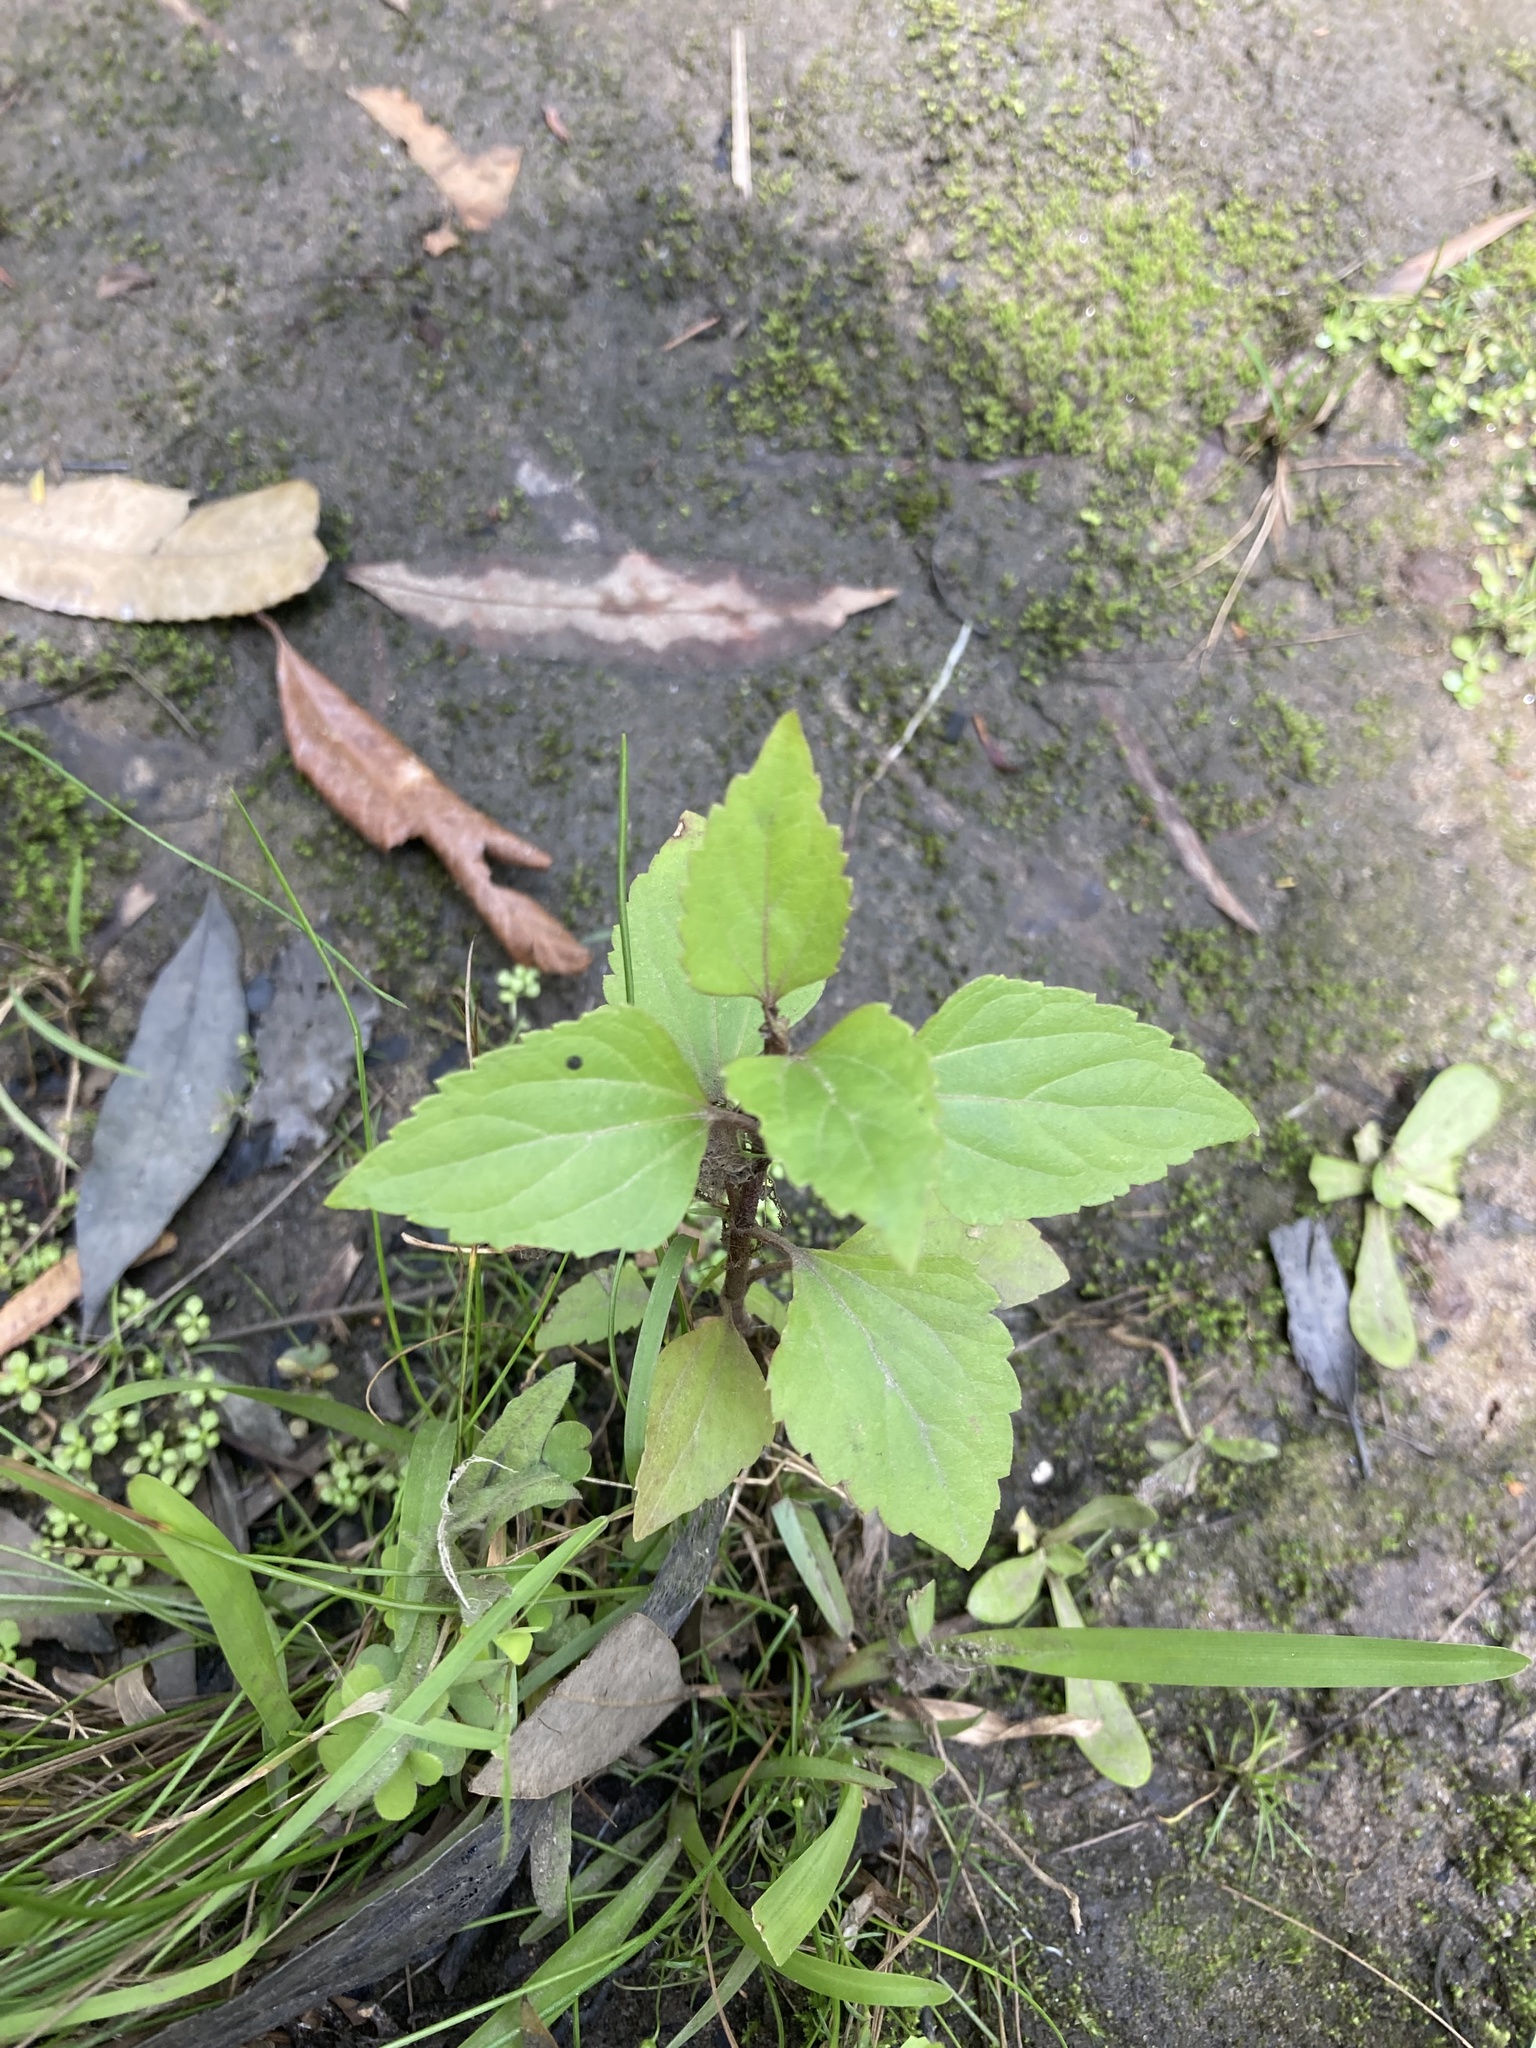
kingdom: Plantae
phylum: Tracheophyta
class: Magnoliopsida
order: Asterales
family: Asteraceae
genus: Ageratina
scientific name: Ageratina adenophora
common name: Sticky snakeroot
